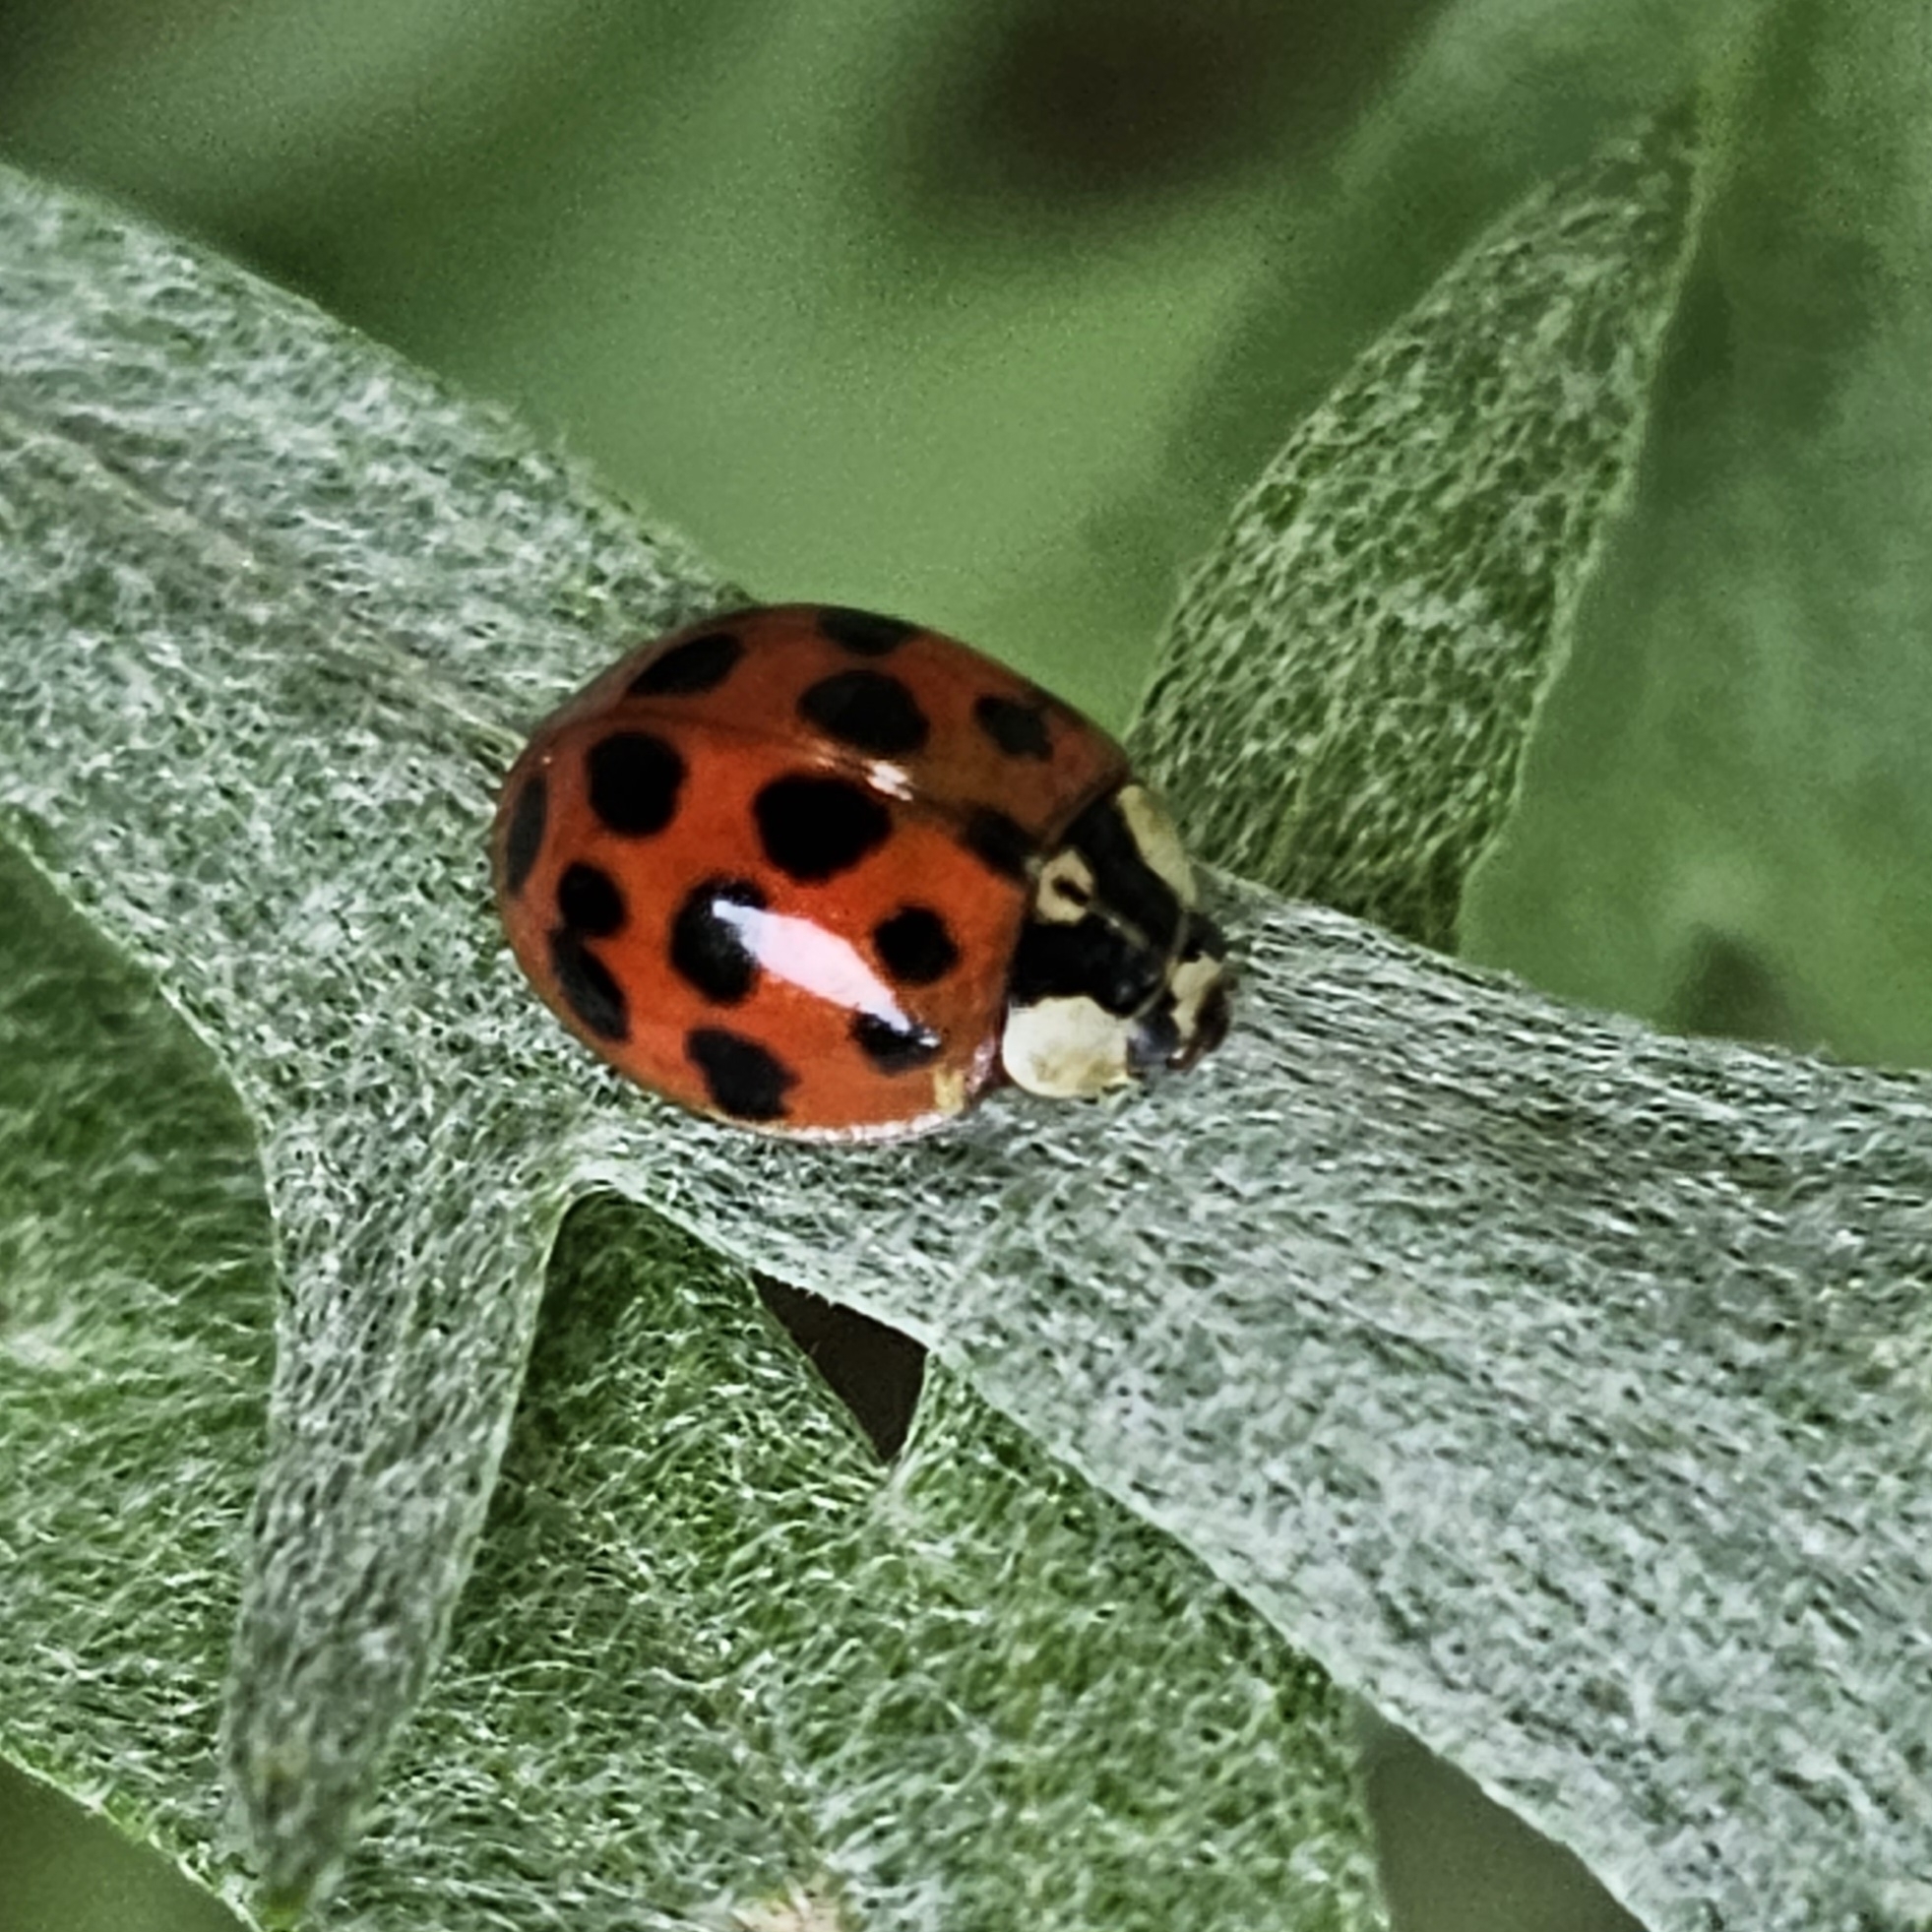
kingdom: Animalia
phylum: Arthropoda
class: Insecta
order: Coleoptera
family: Coccinellidae
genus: Harmonia
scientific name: Harmonia axyridis
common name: Harlequin ladybird
